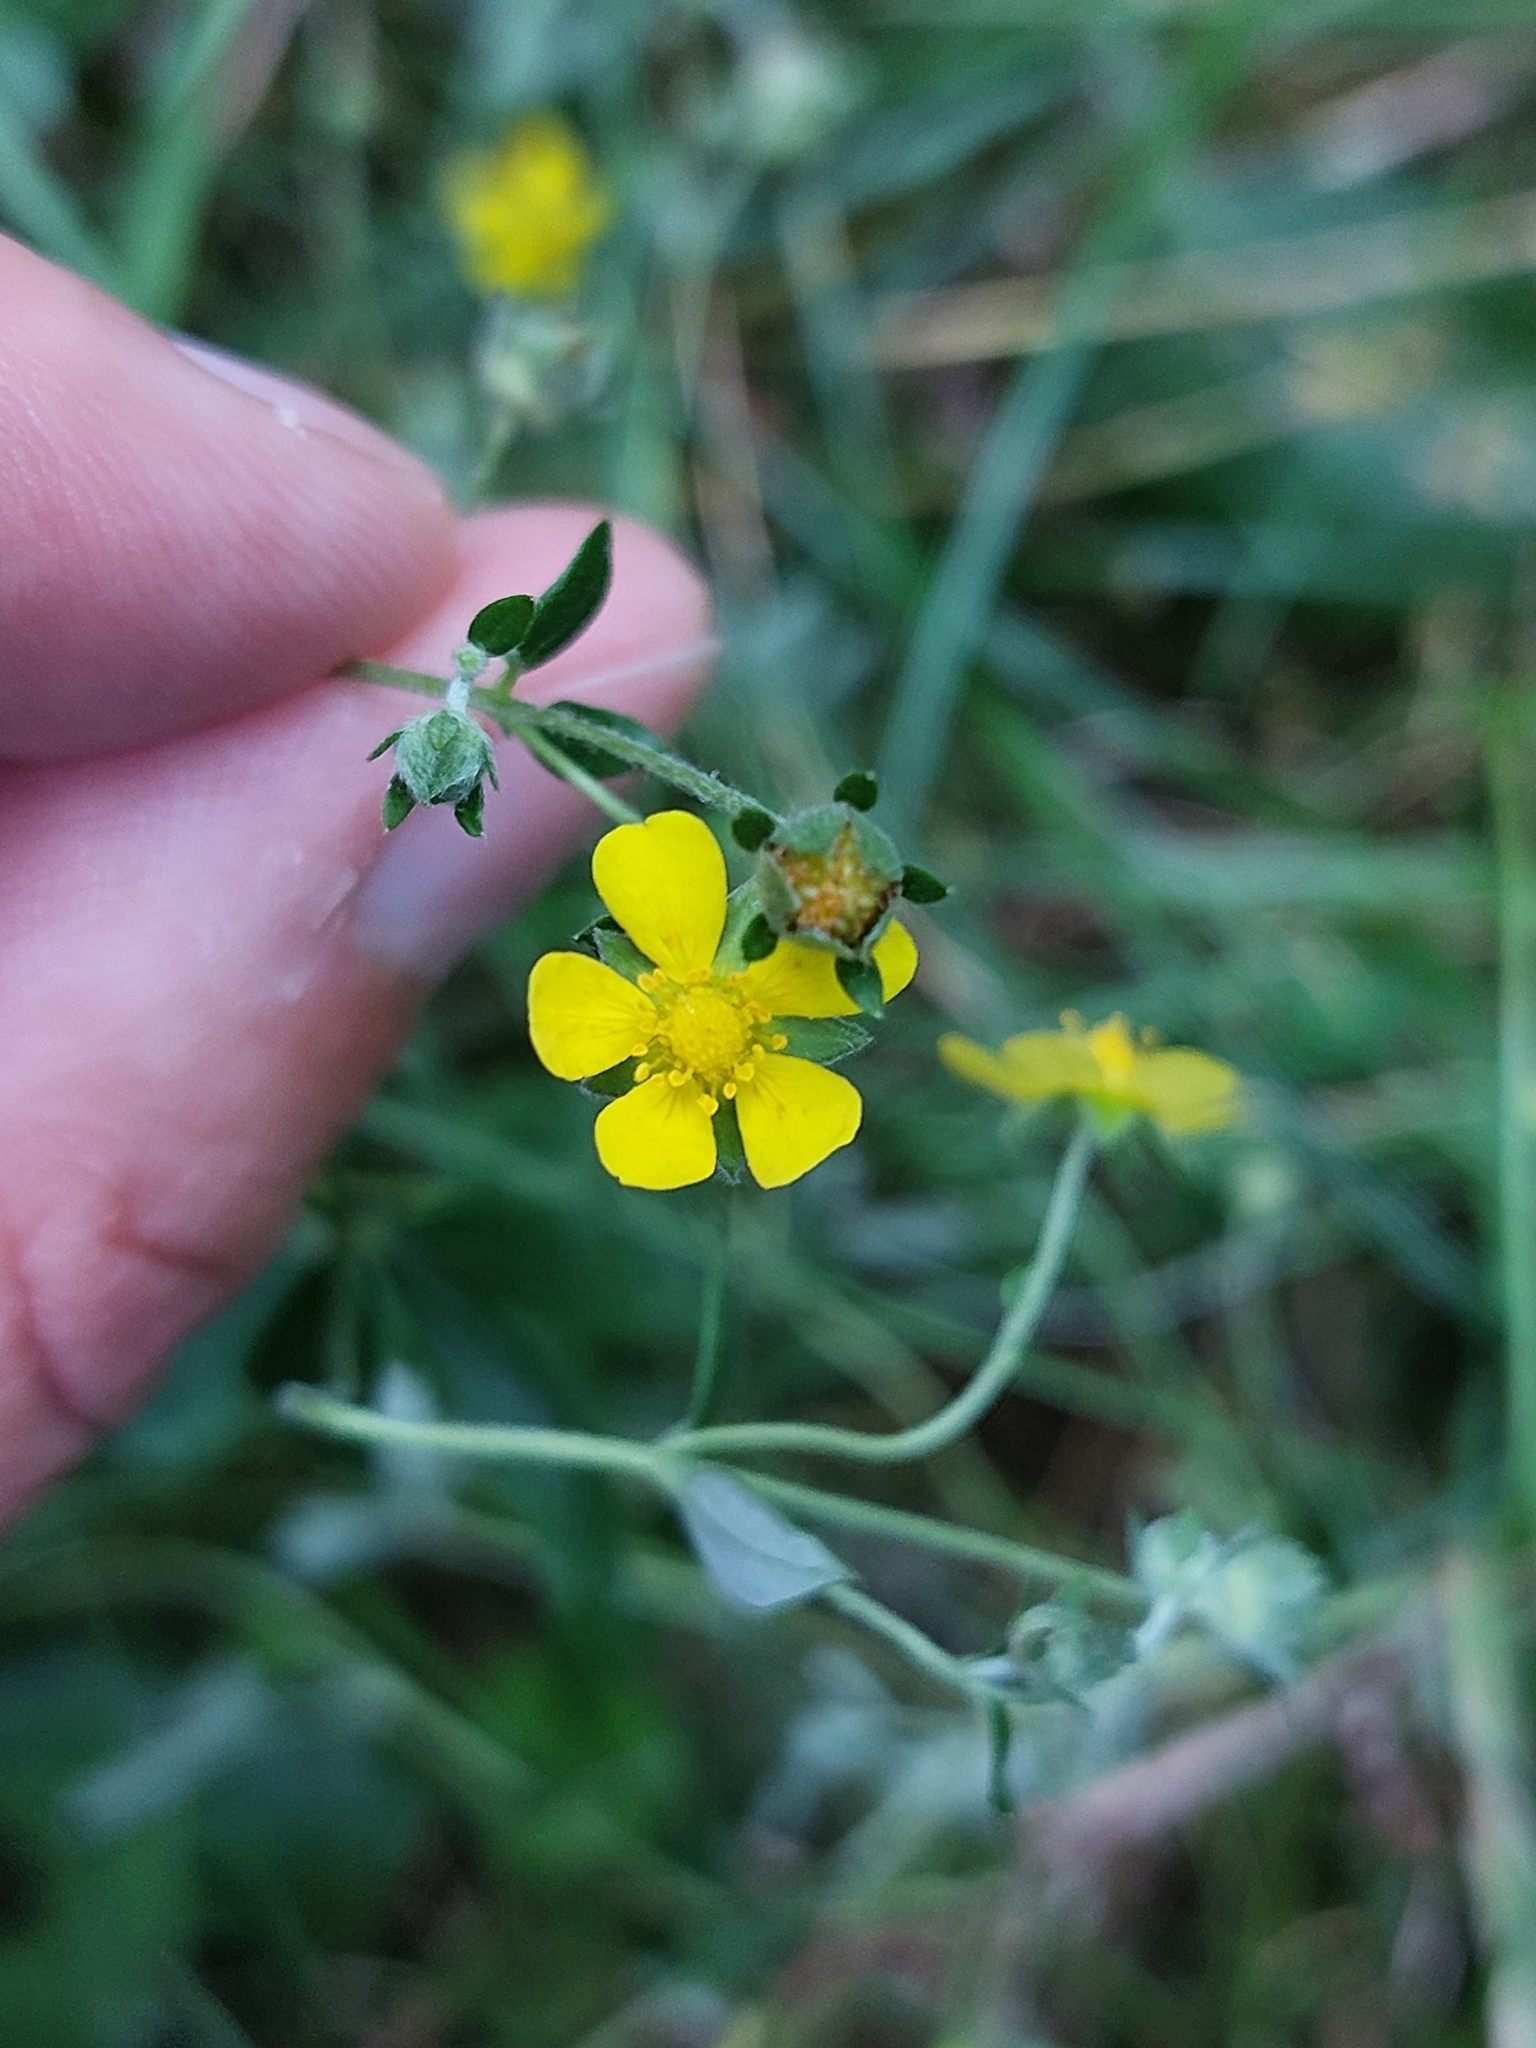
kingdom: Plantae
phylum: Tracheophyta
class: Magnoliopsida
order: Rosales
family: Rosaceae
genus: Potentilla
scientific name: Potentilla argentea
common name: Hoary cinquefoil
